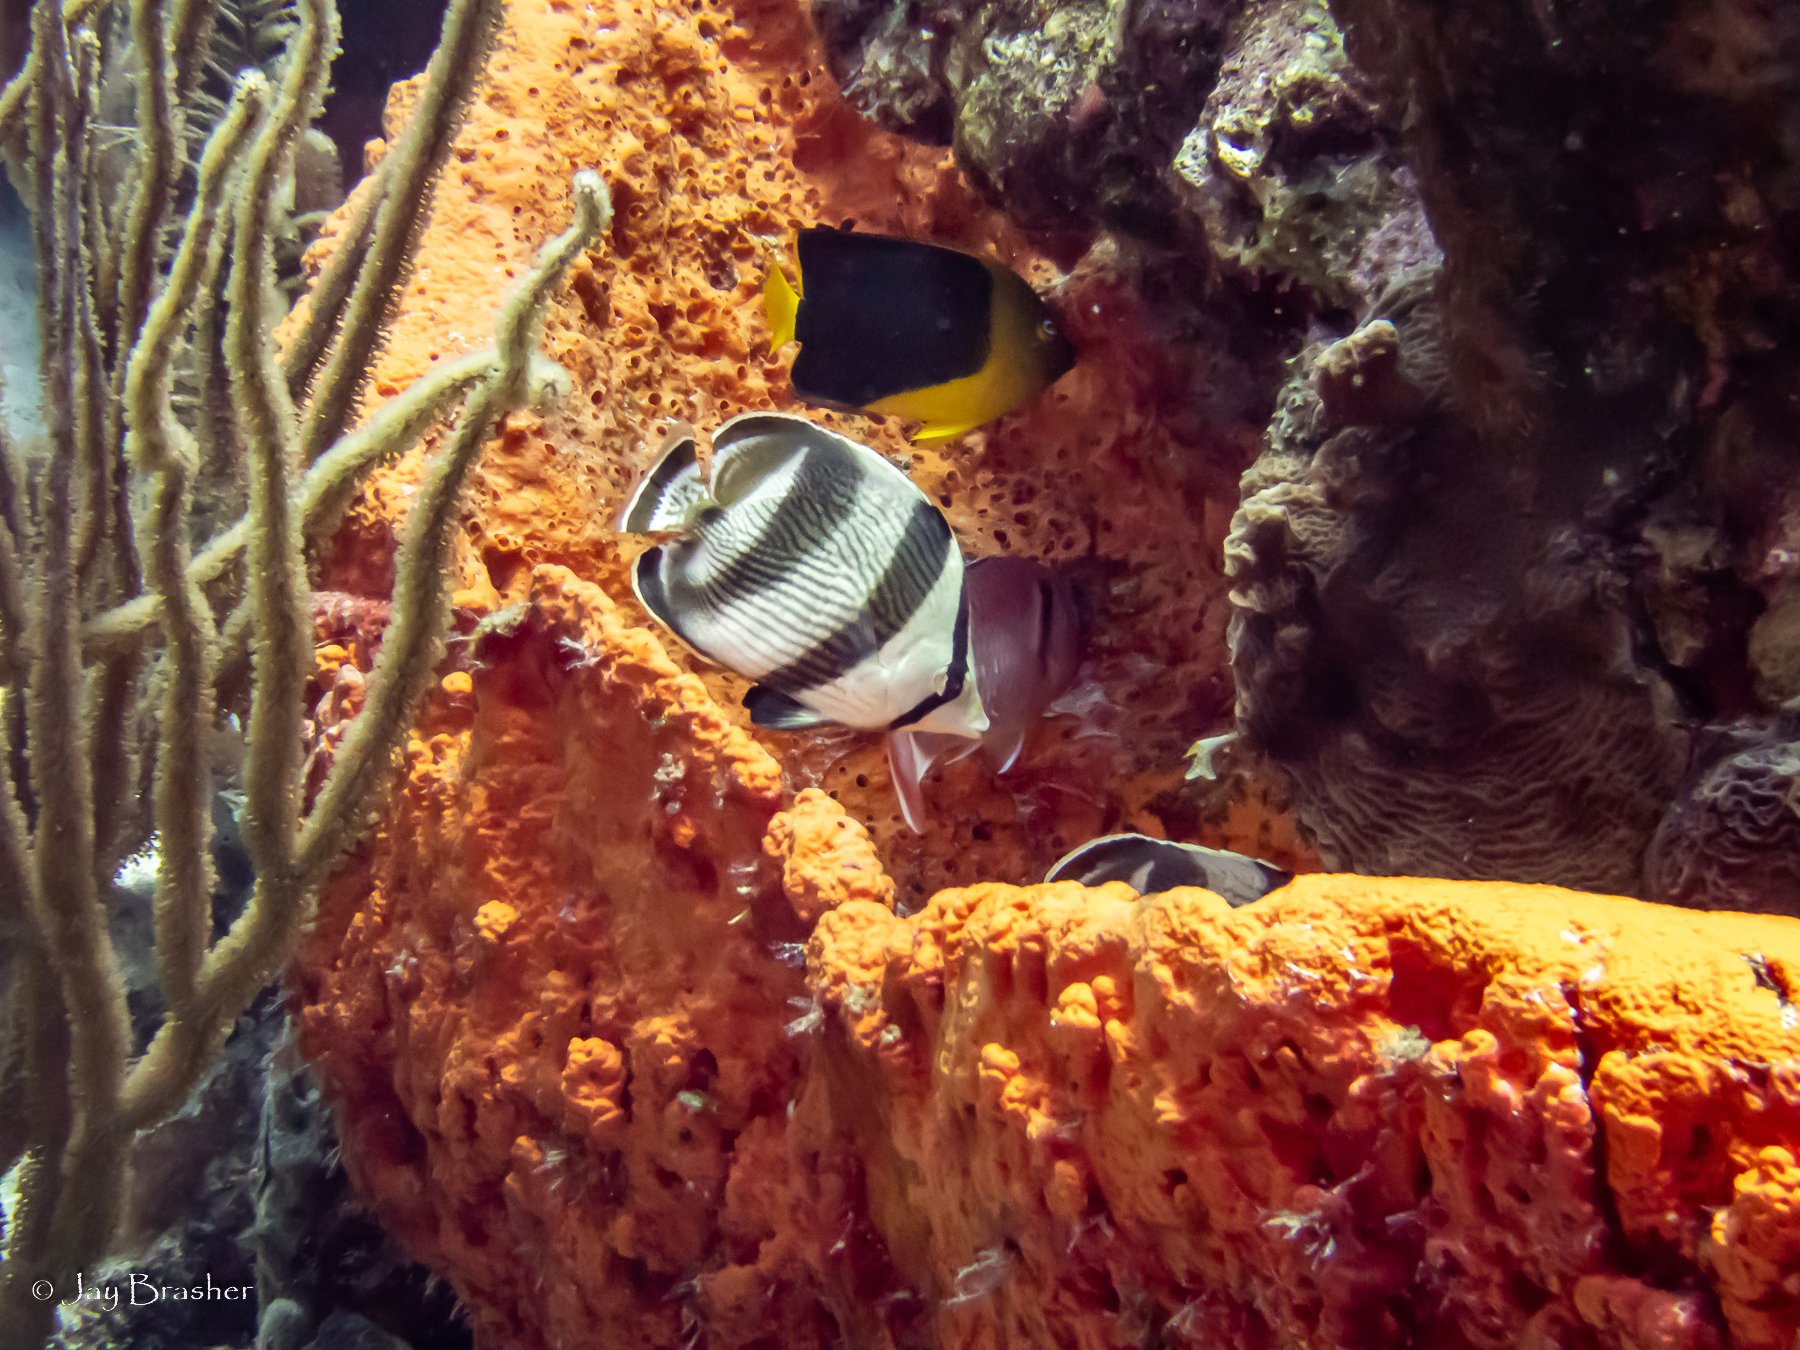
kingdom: Animalia
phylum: Chordata
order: Perciformes
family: Pomacanthidae
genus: Holacanthus
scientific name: Holacanthus tricolor
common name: Rock beauty
